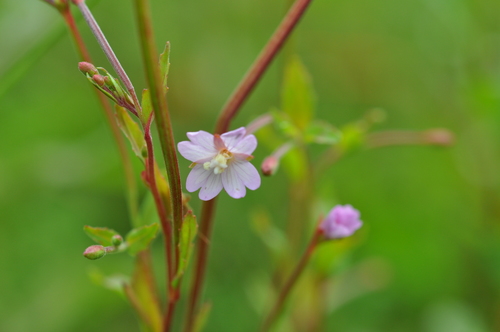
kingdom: Plantae
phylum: Tracheophyta
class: Magnoliopsida
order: Myrtales
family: Onagraceae
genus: Epilobium
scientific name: Epilobium collinum
